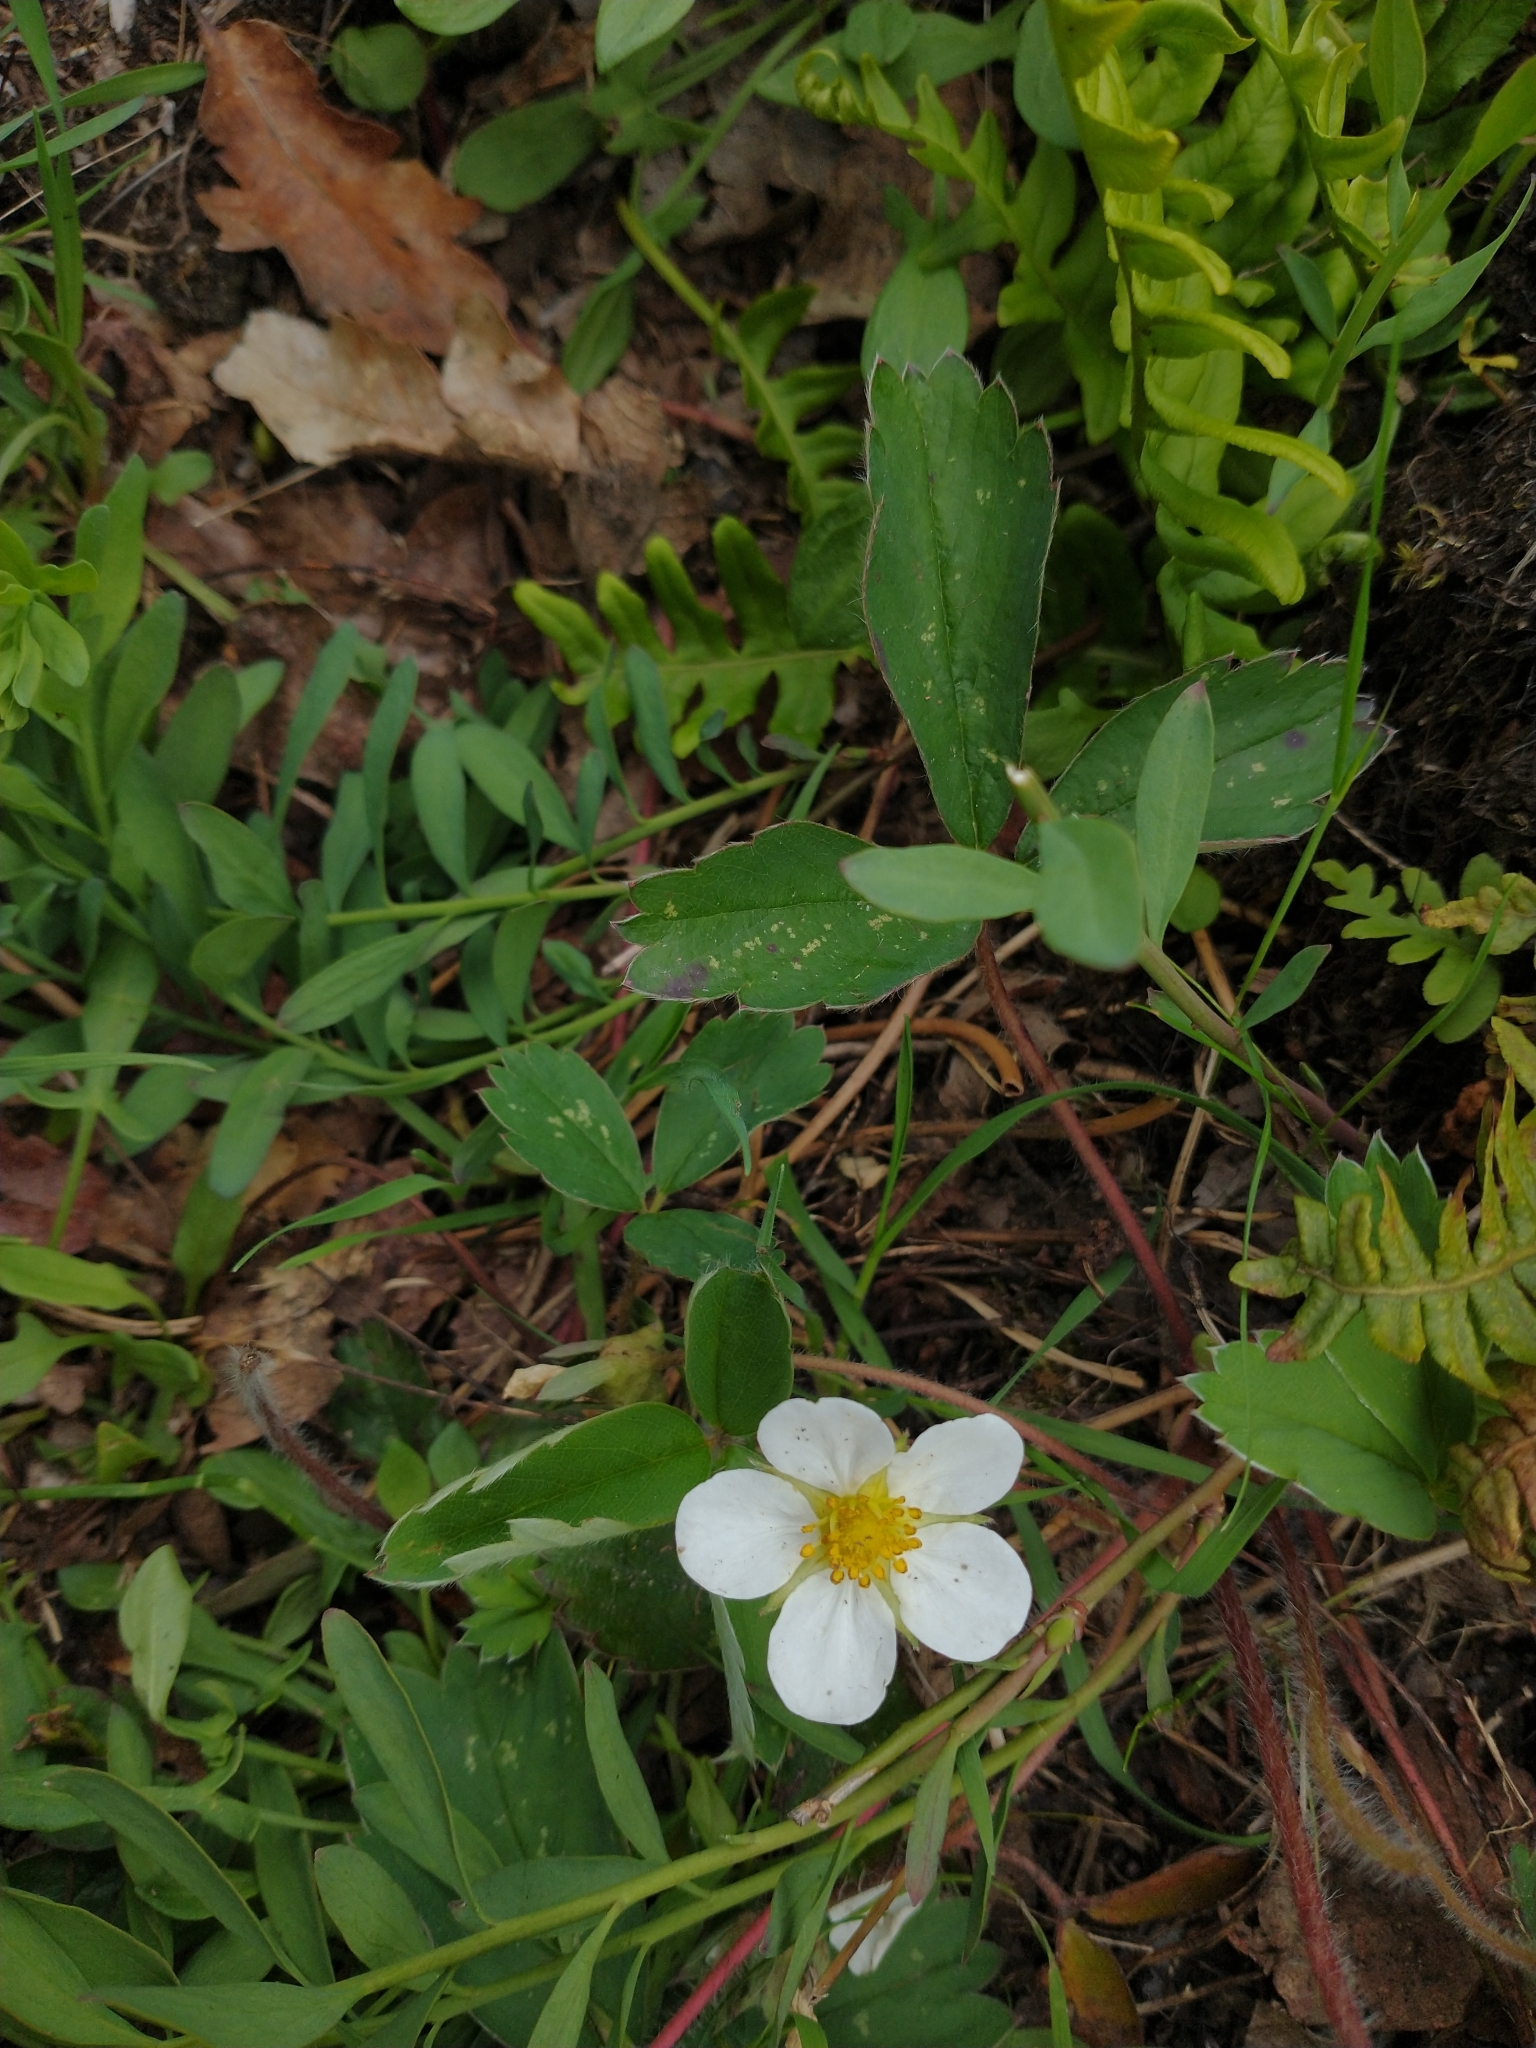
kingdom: Plantae
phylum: Tracheophyta
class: Magnoliopsida
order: Rosales
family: Rosaceae
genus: Fragaria
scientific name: Fragaria virginiana
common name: Thickleaved wild strawberry
